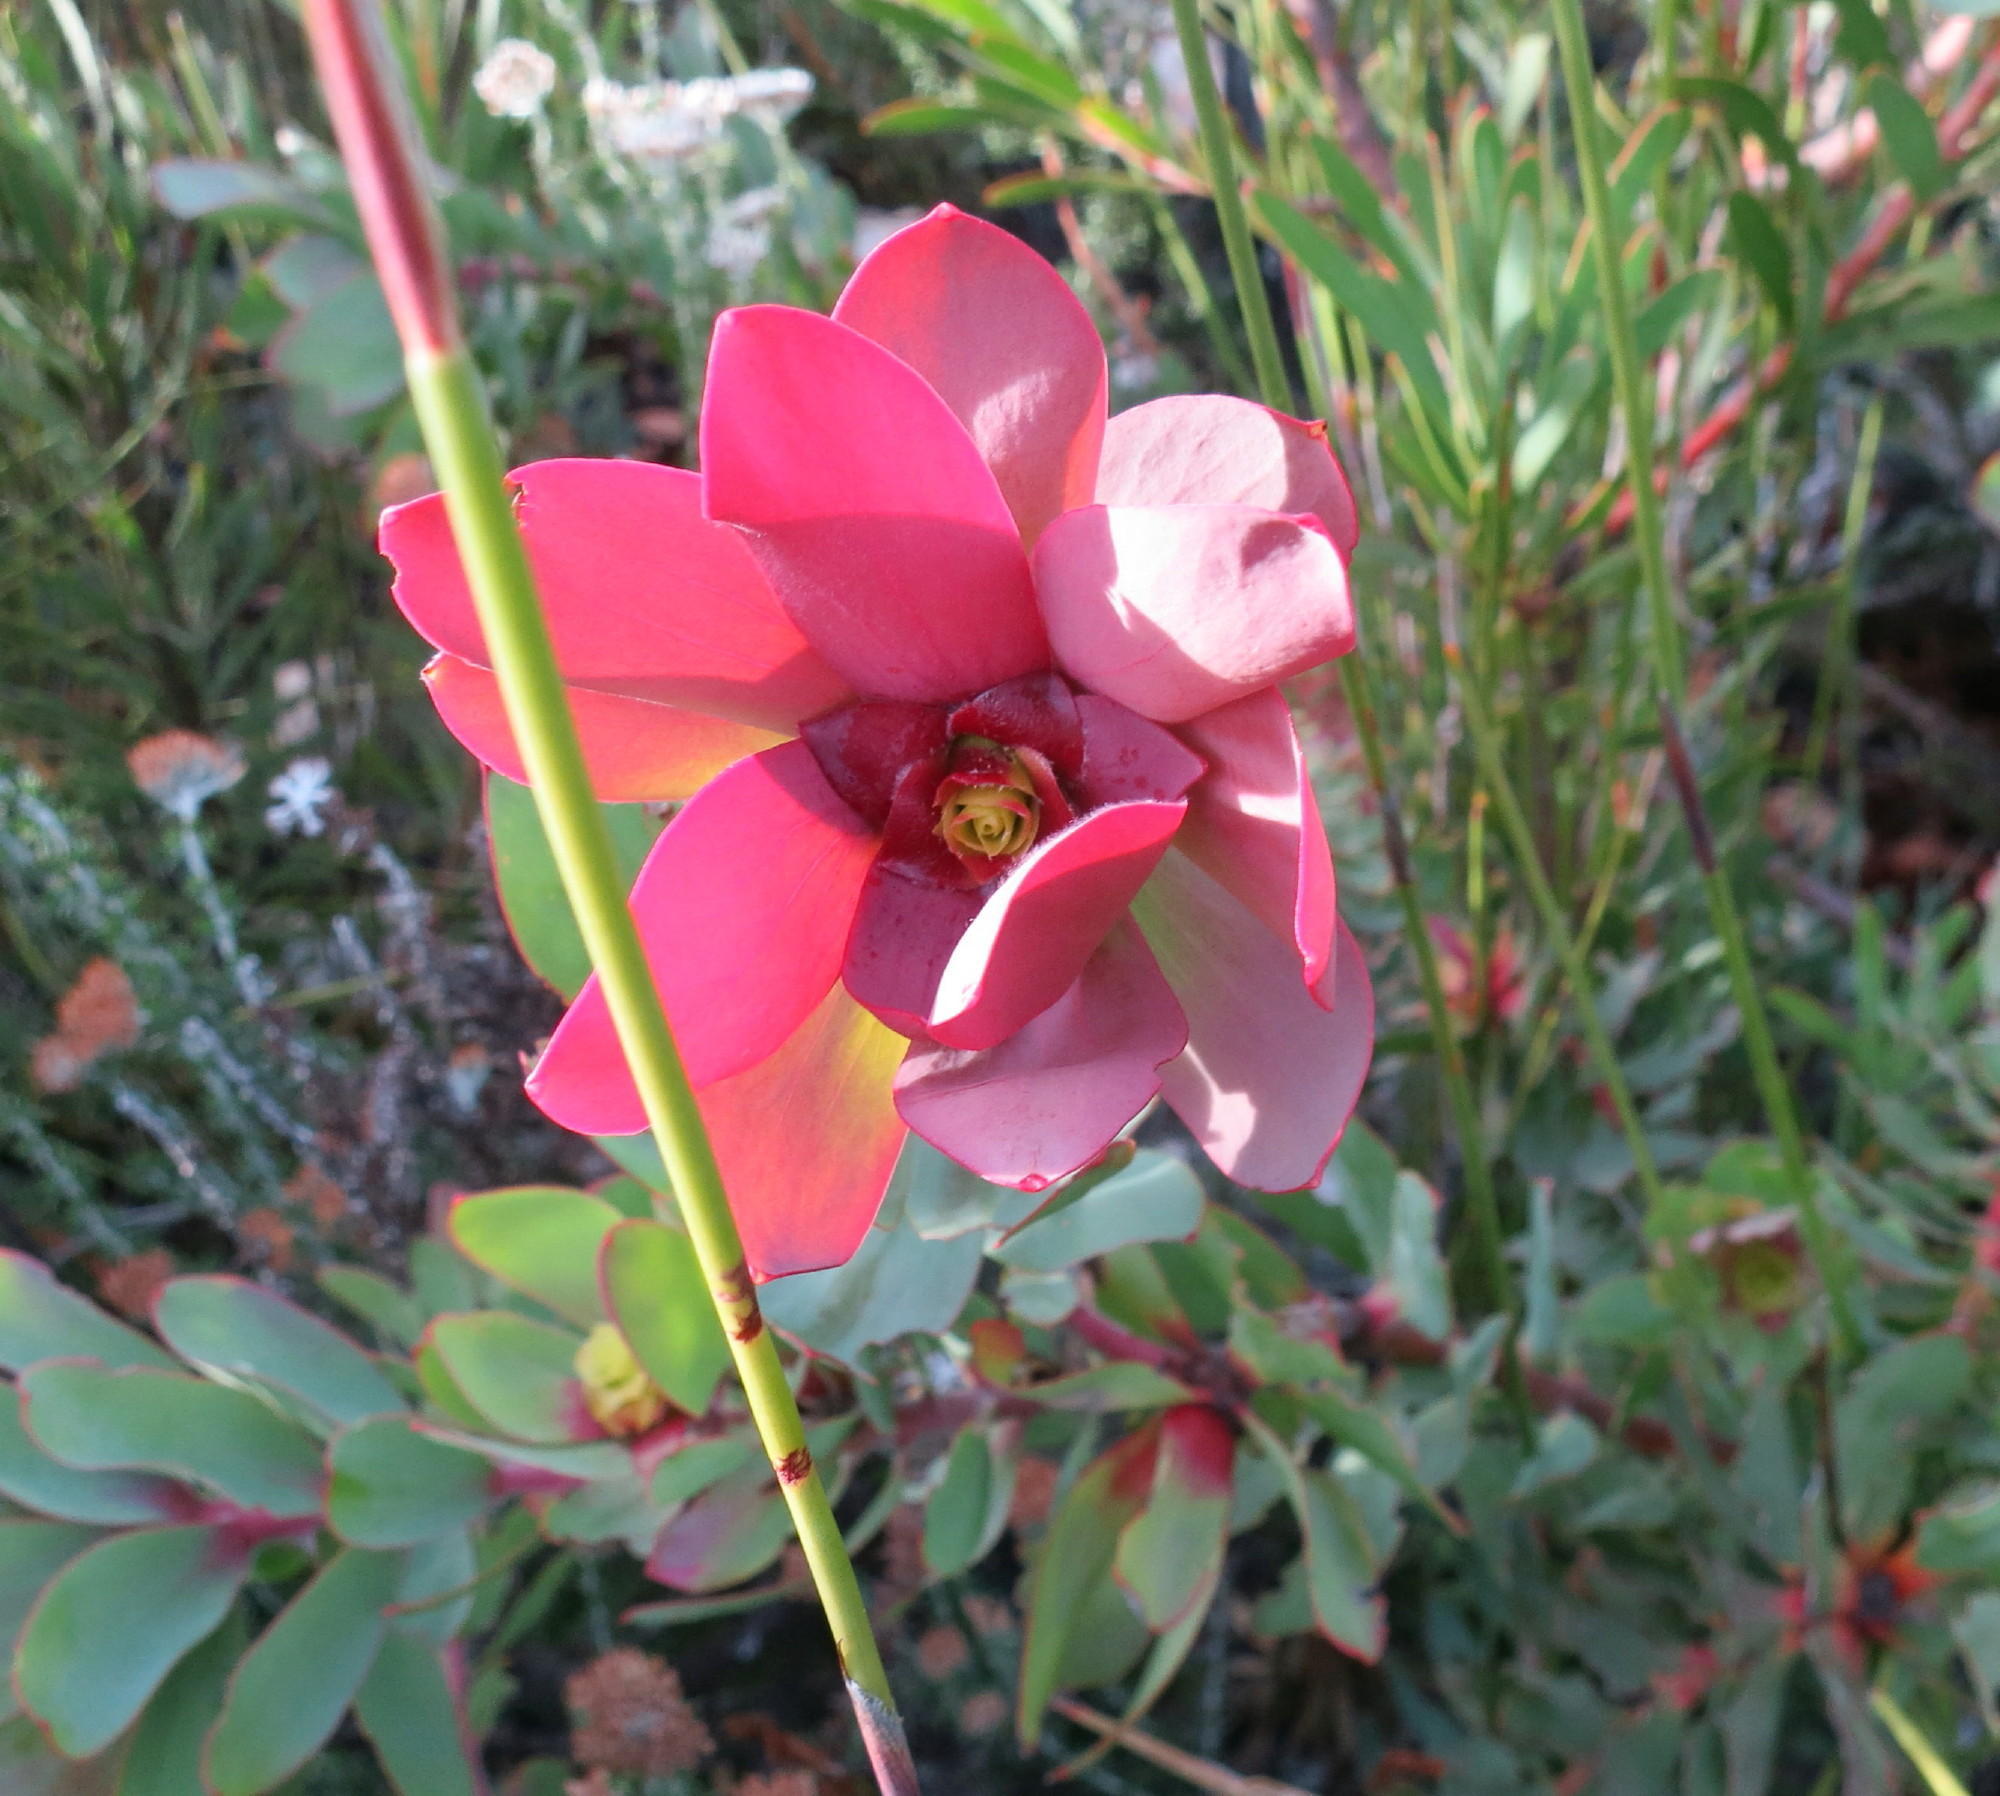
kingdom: Plantae
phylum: Tracheophyta
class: Magnoliopsida
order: Proteales
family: Proteaceae
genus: Leucadendron
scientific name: Leucadendron cordatum
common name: Droopy conebush
